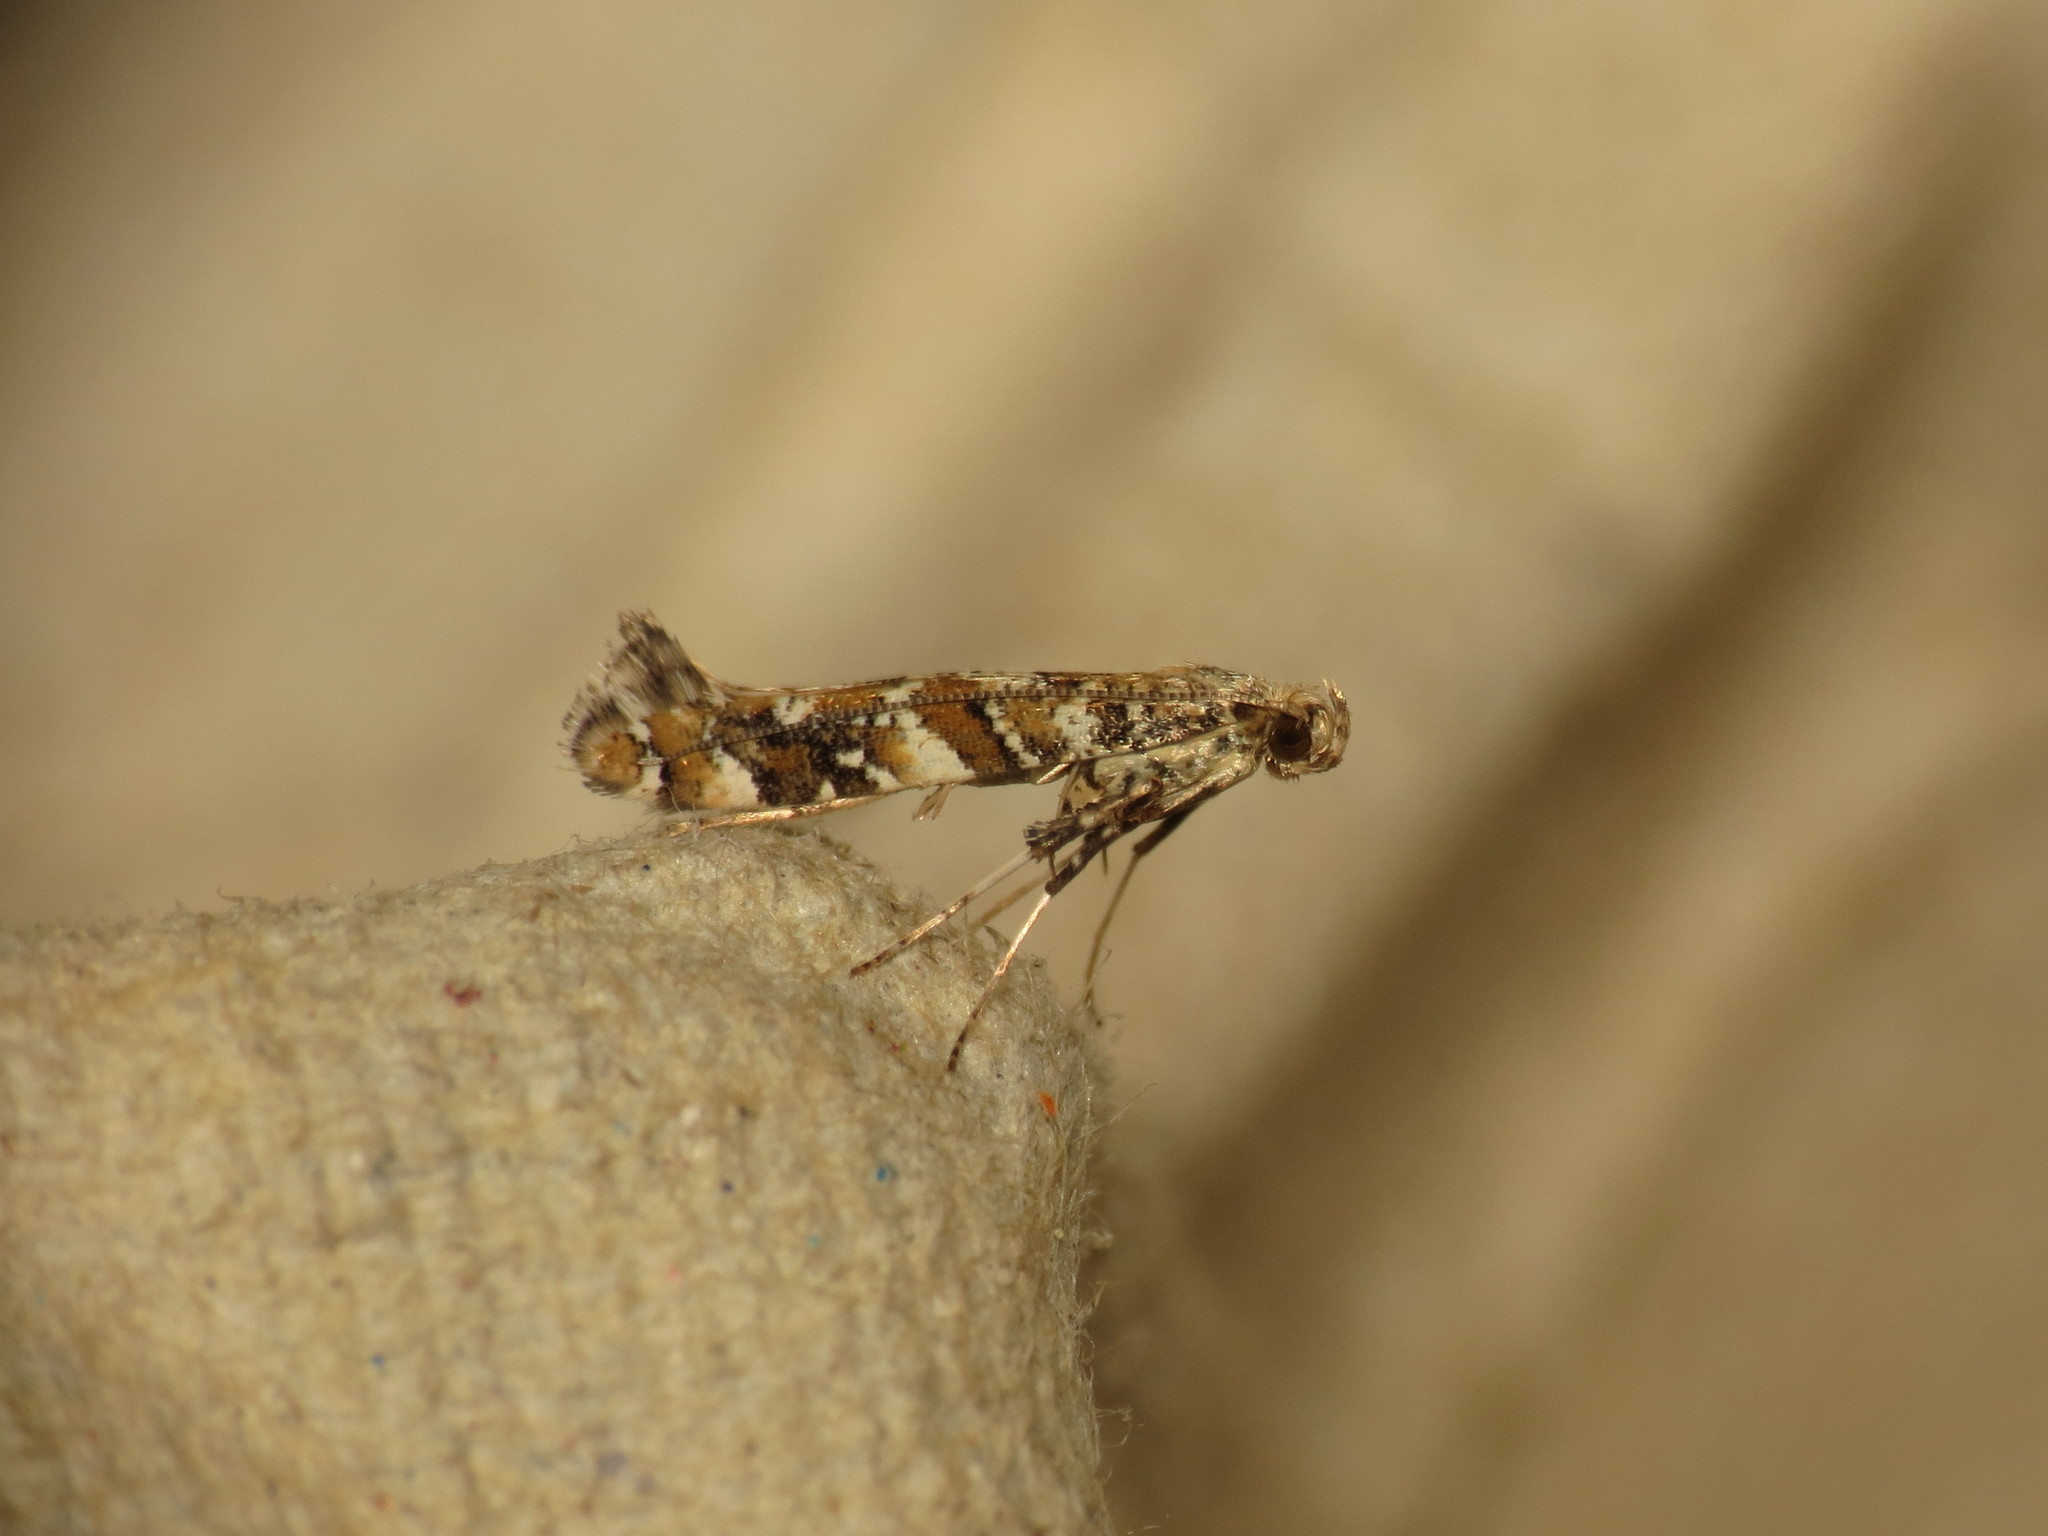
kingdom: Animalia
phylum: Arthropoda
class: Insecta
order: Lepidoptera
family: Gracillariidae
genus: Gracillaria
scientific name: Gracillaria syringella
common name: Common slender
